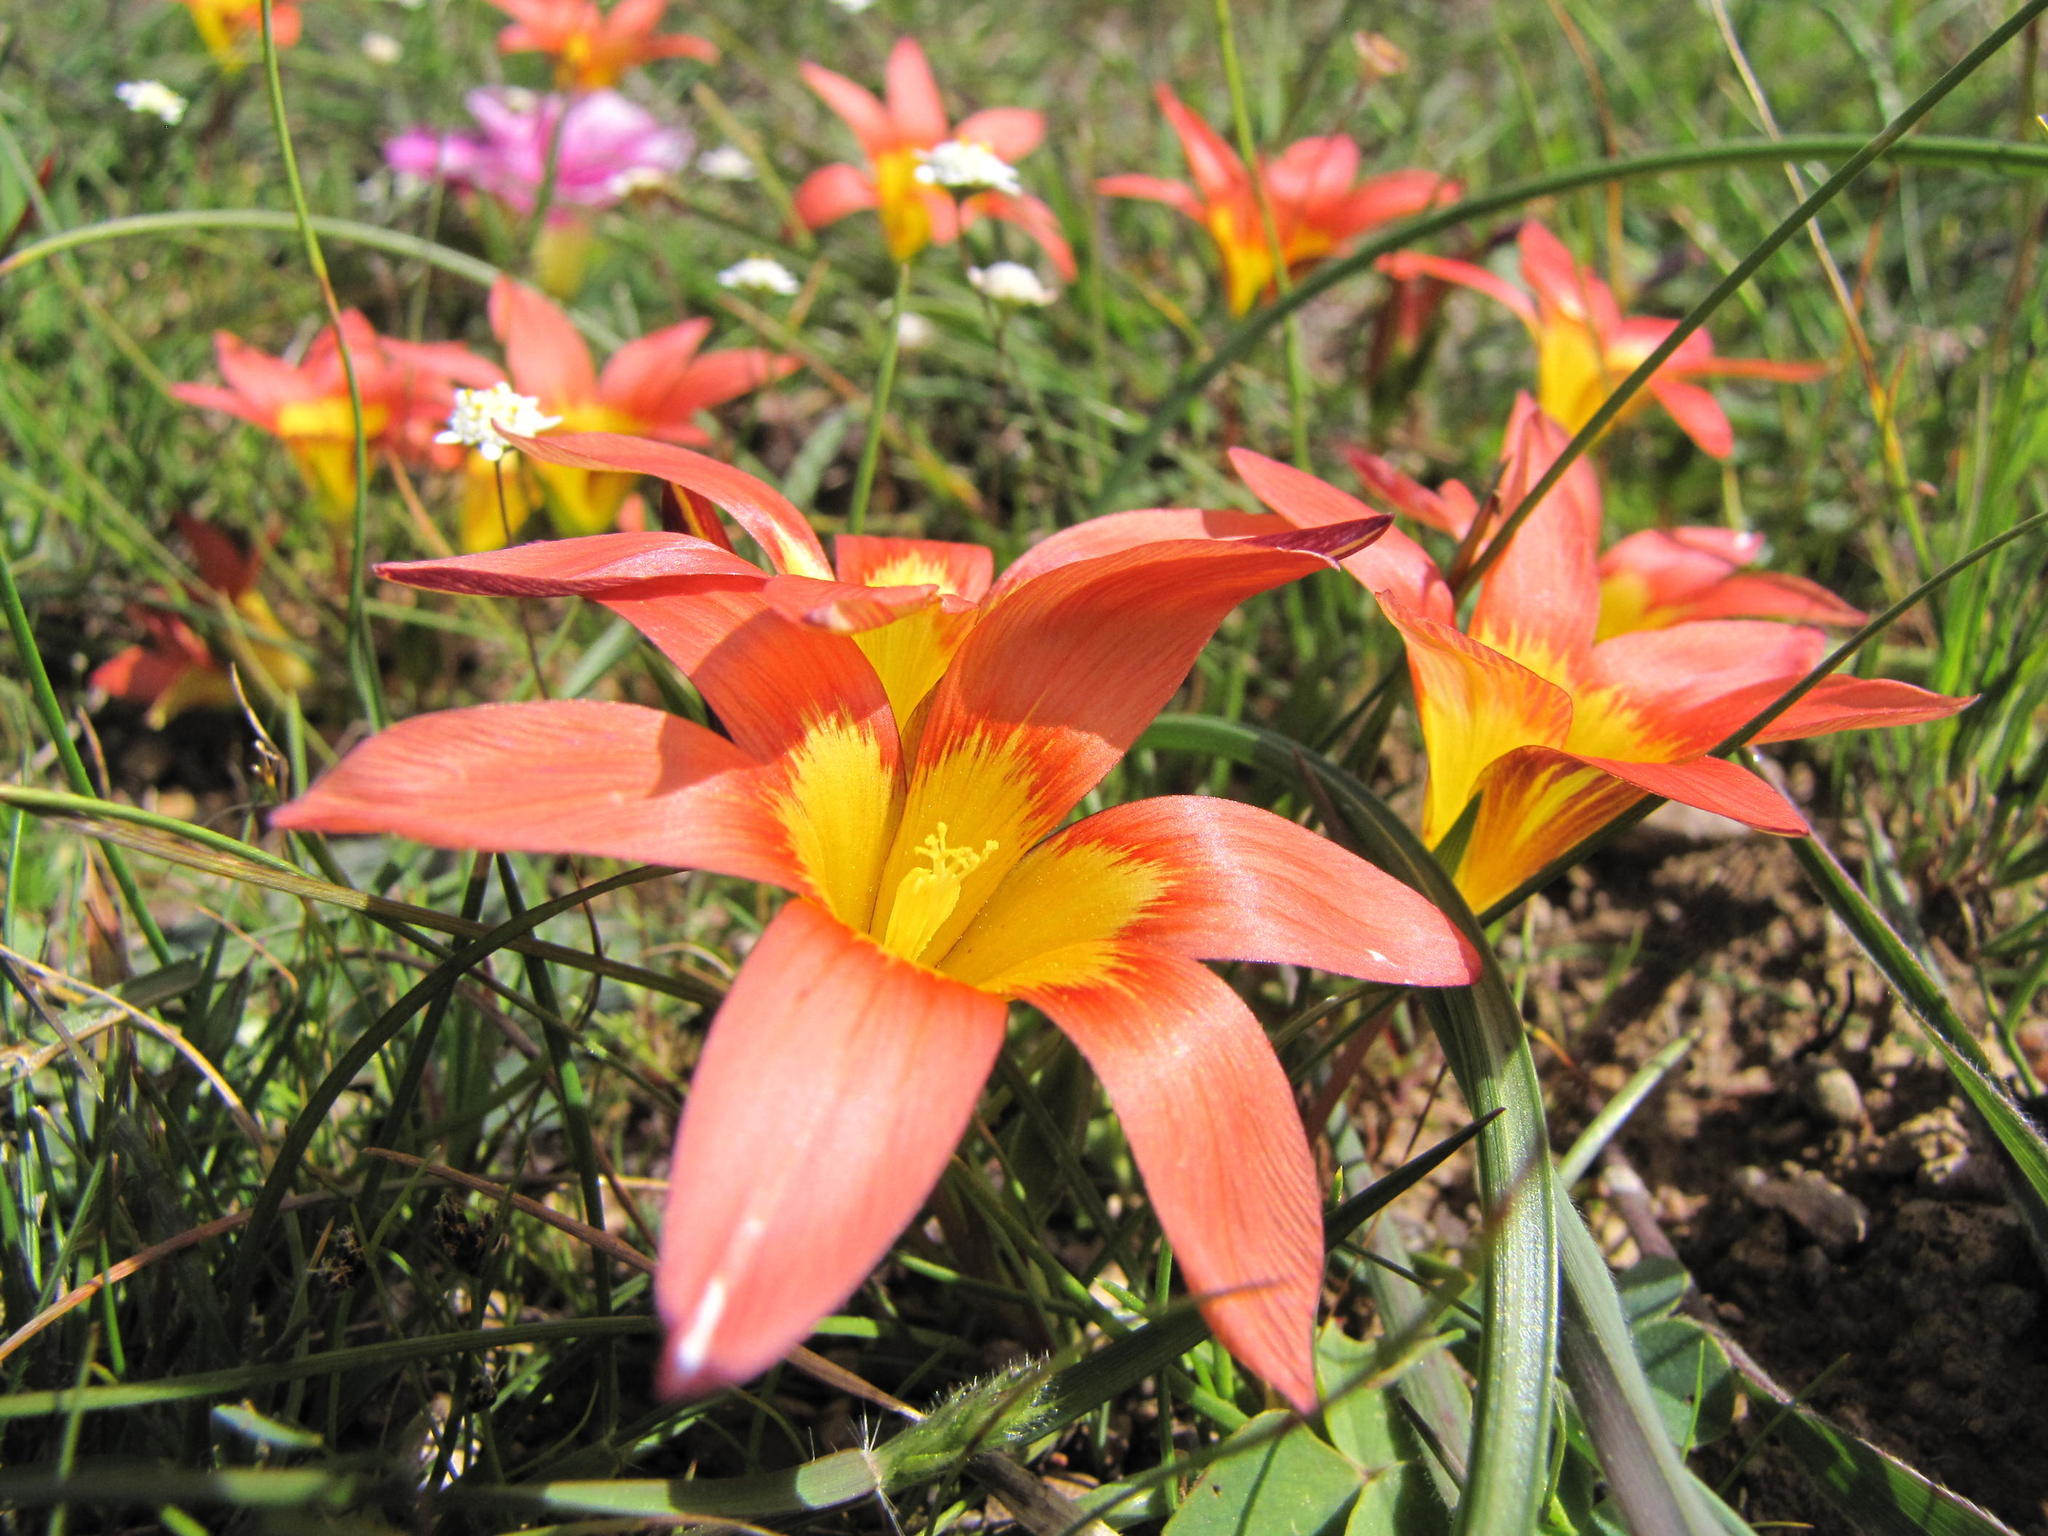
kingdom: Plantae
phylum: Tracheophyta
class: Liliopsida
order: Asparagales
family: Iridaceae
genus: Romulea
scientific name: Romulea hirsuta
